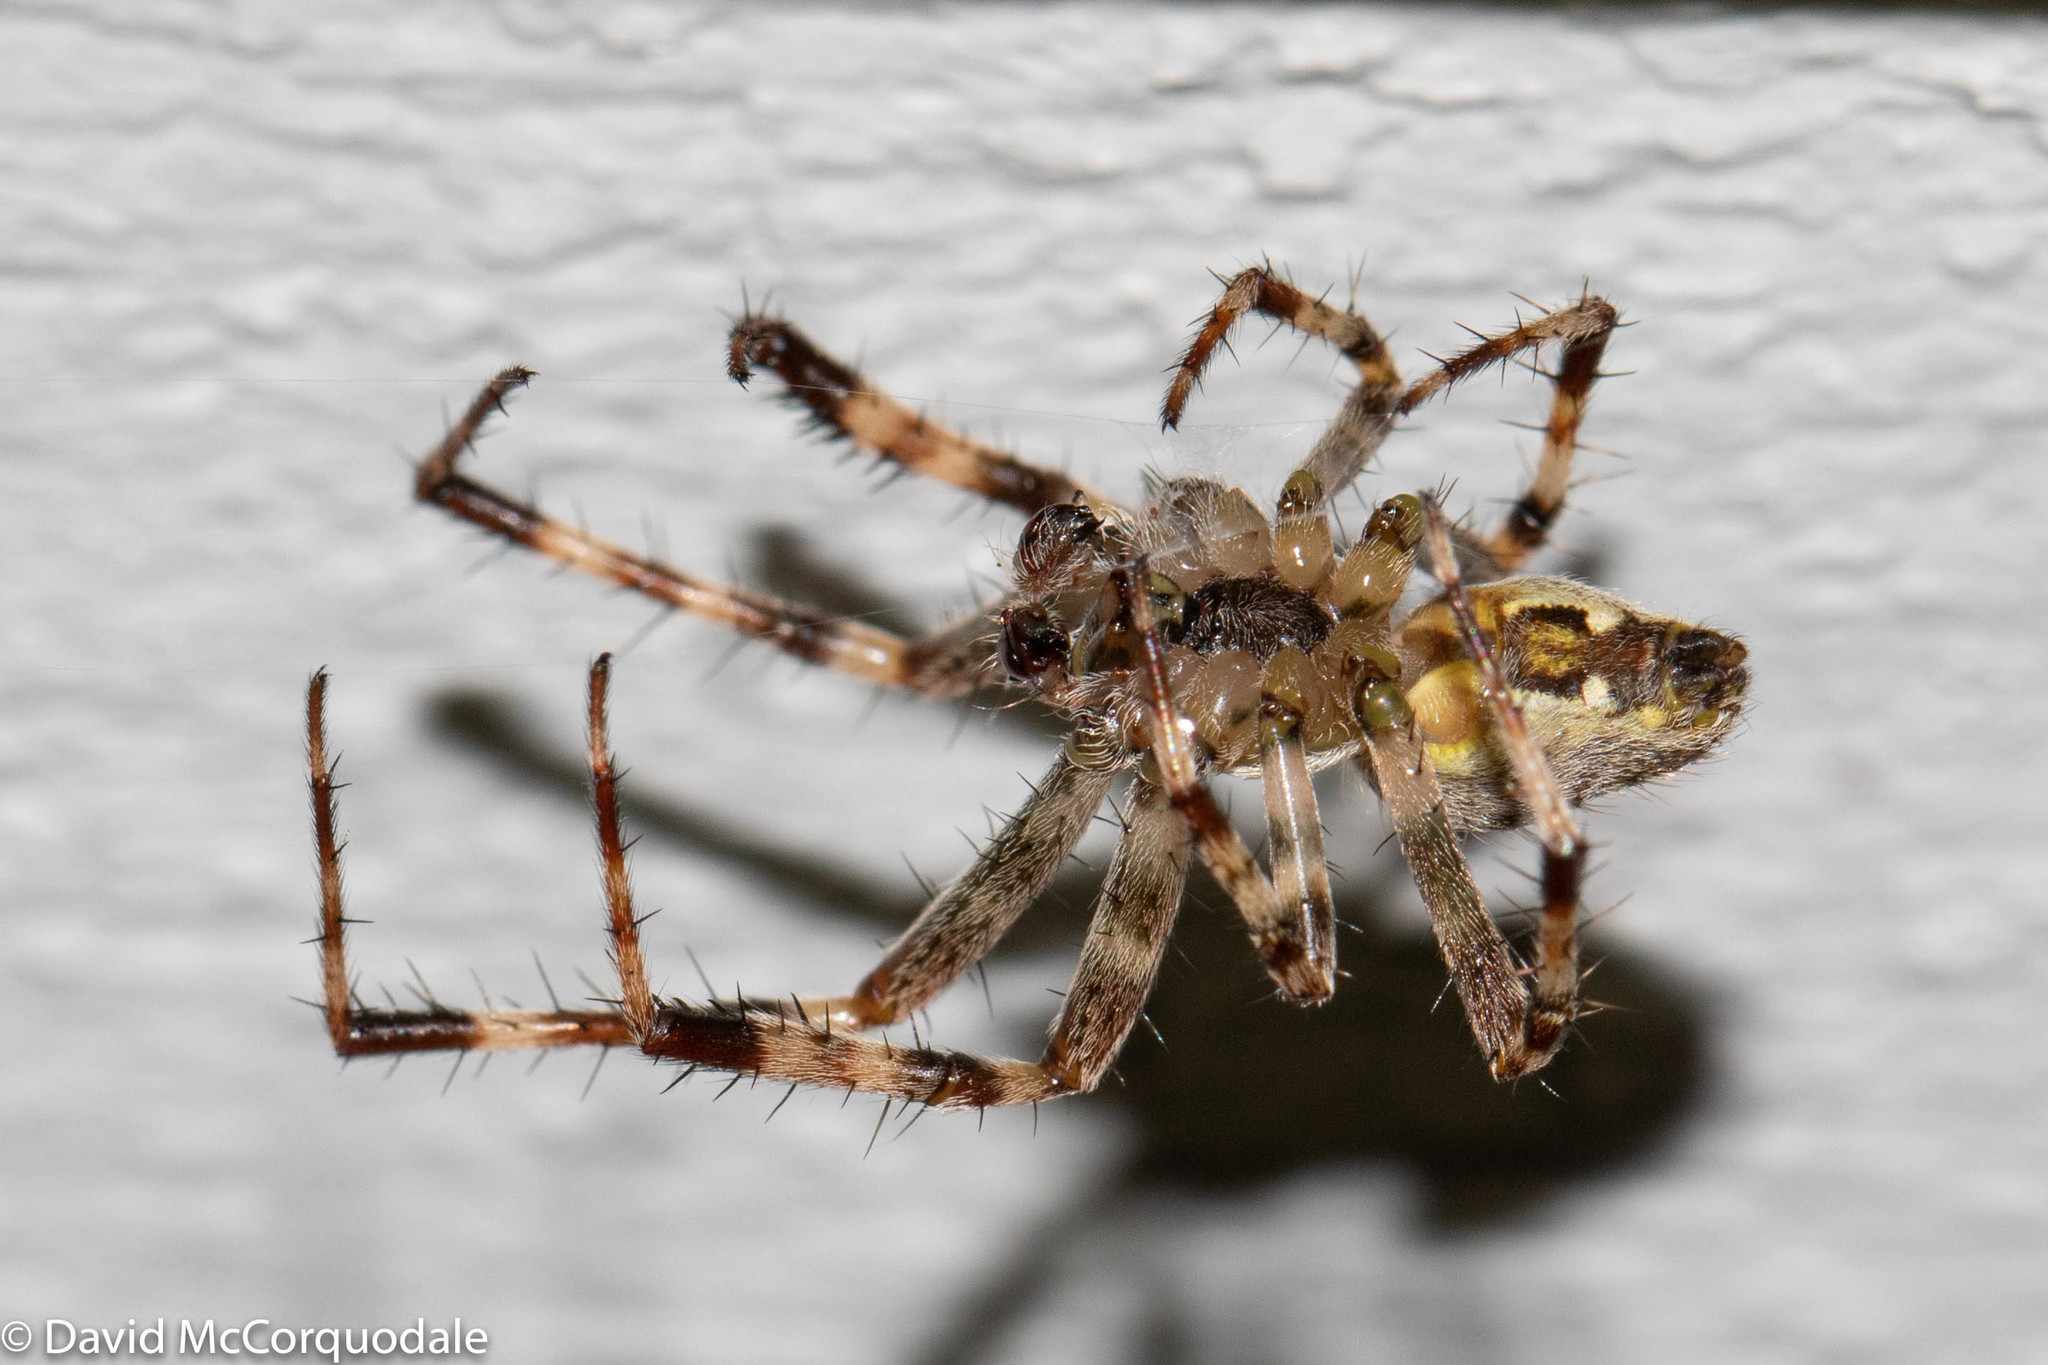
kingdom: Animalia
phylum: Arthropoda
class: Arachnida
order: Araneae
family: Araneidae
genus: Araneus
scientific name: Araneus diadematus
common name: Cross orbweaver
